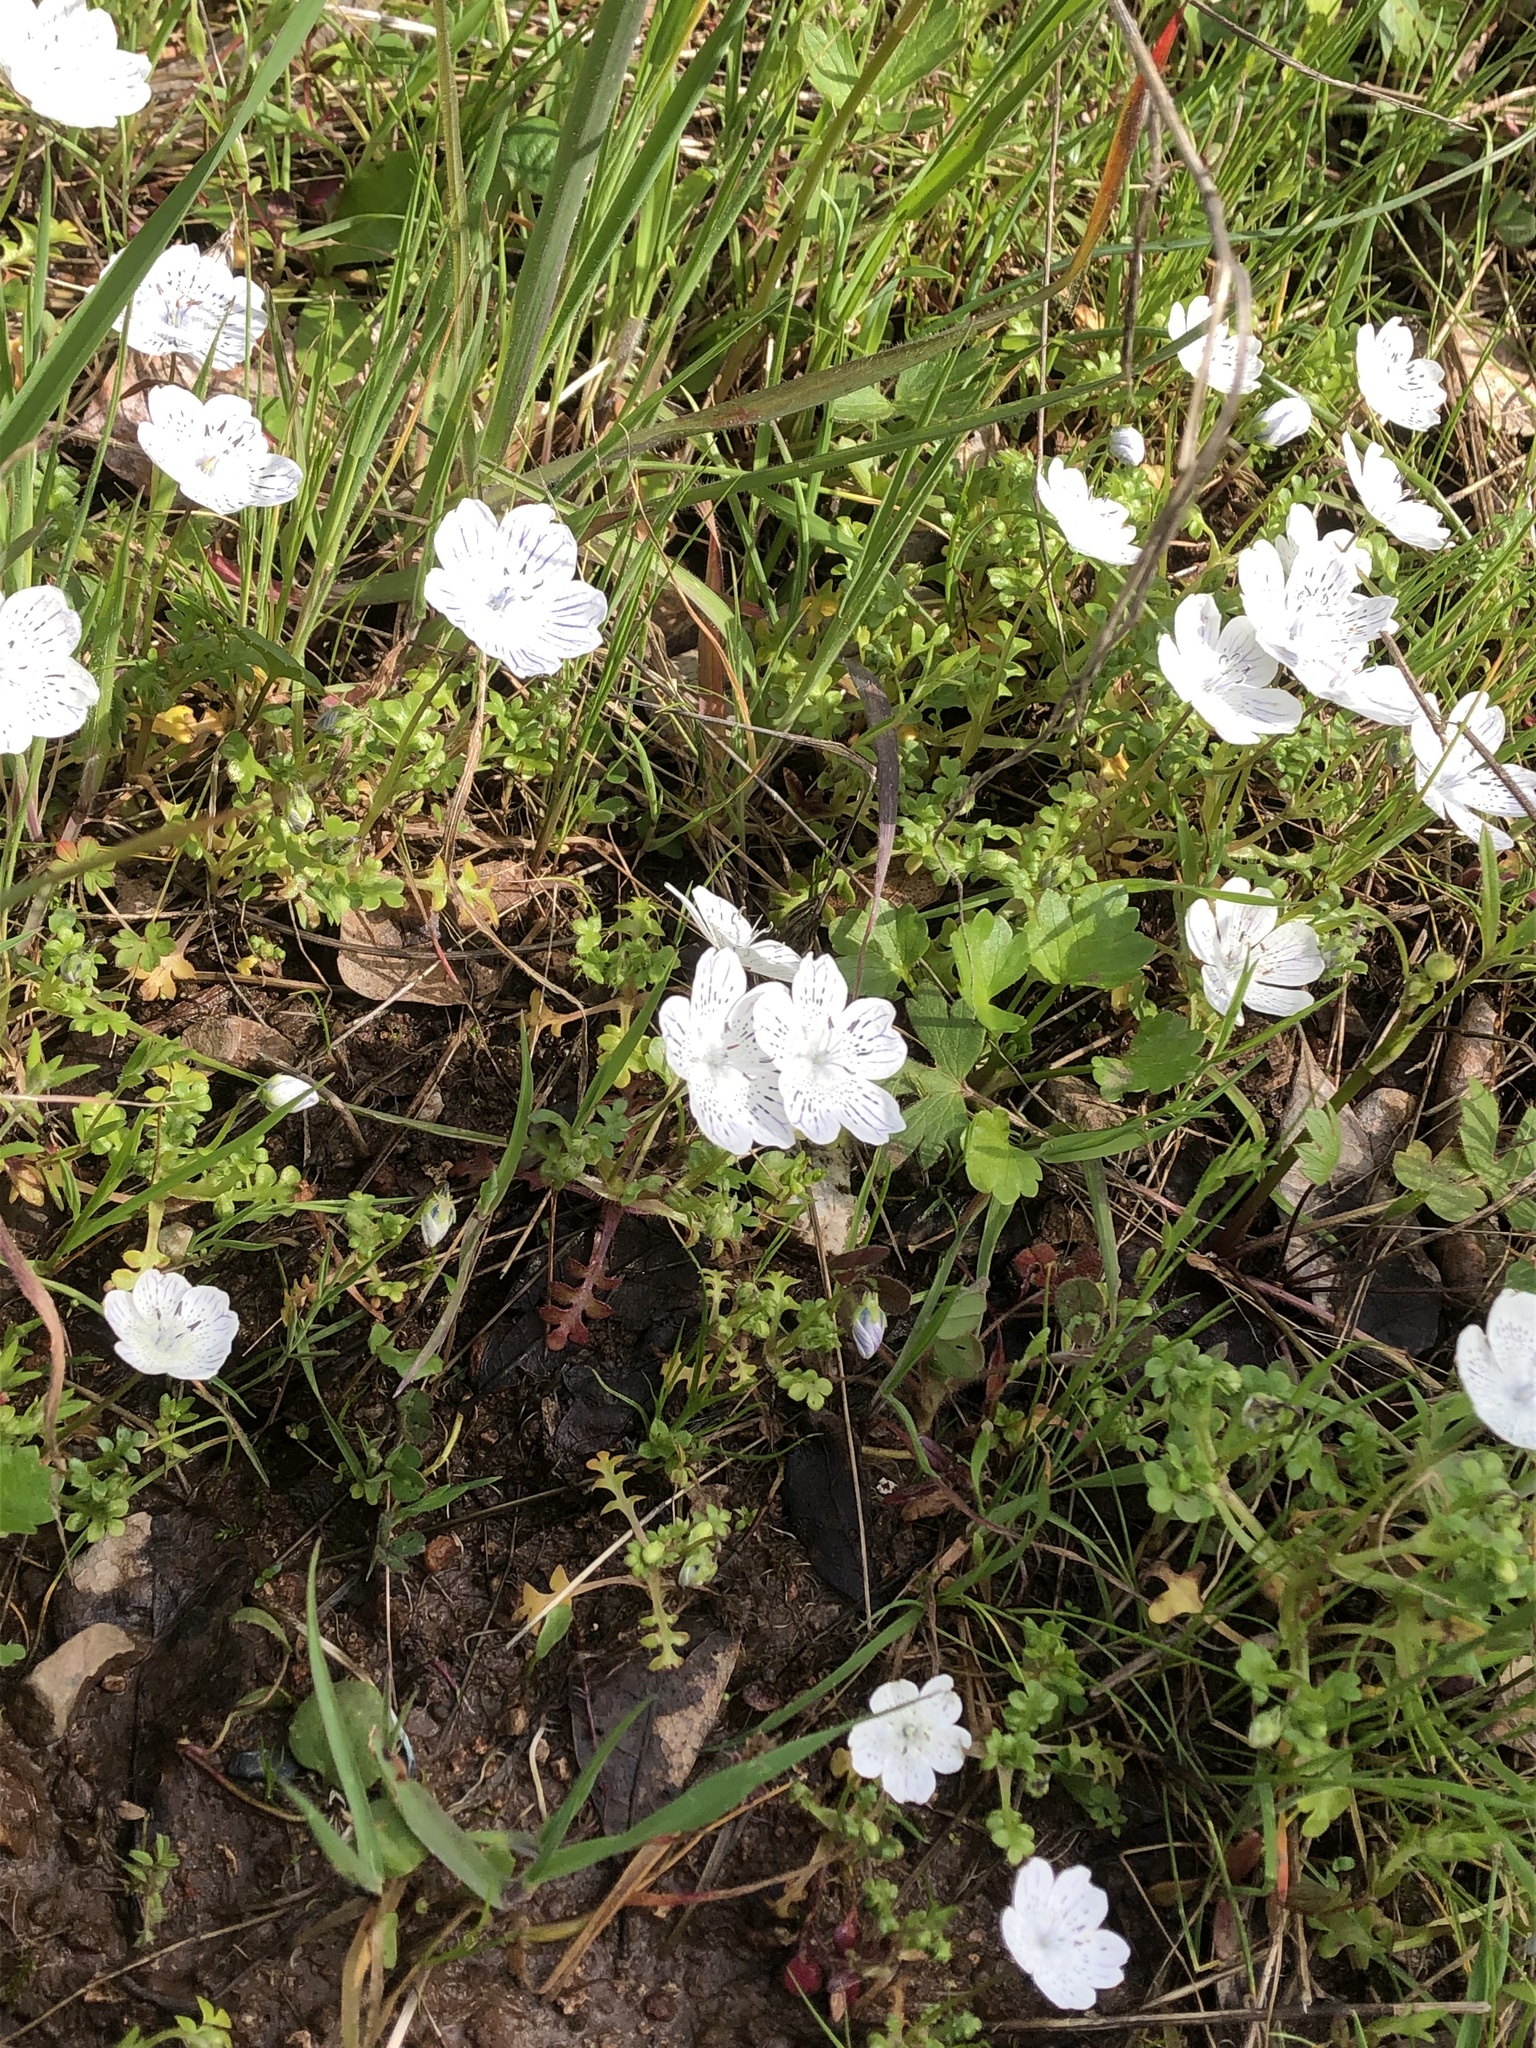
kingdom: Plantae
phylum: Tracheophyta
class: Magnoliopsida
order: Boraginales
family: Hydrophyllaceae
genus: Nemophila
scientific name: Nemophila menziesii
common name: Baby's-blue-eyes
